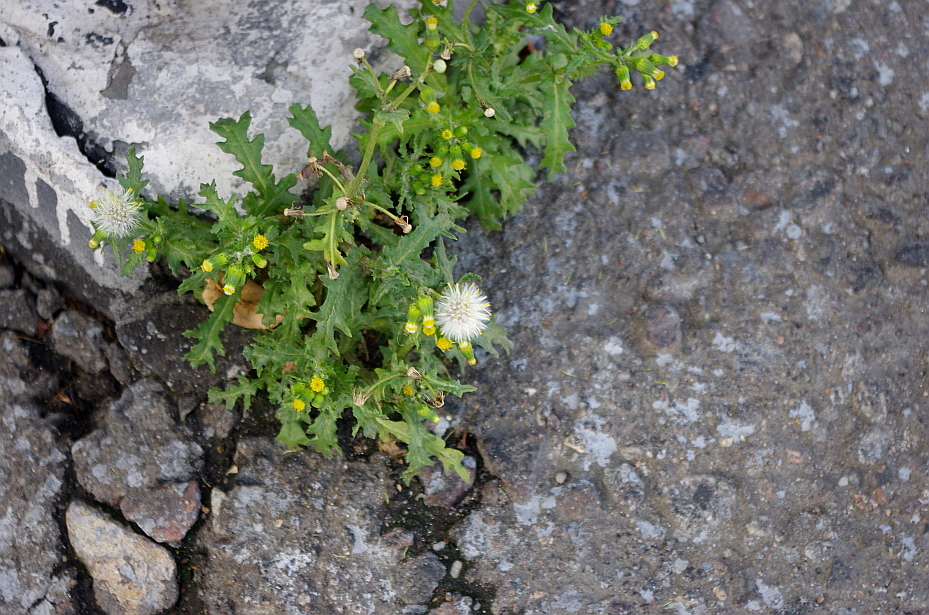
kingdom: Plantae
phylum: Tracheophyta
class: Magnoliopsida
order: Asterales
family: Asteraceae
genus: Senecio
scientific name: Senecio vulgaris
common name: Old-man-in-the-spring
